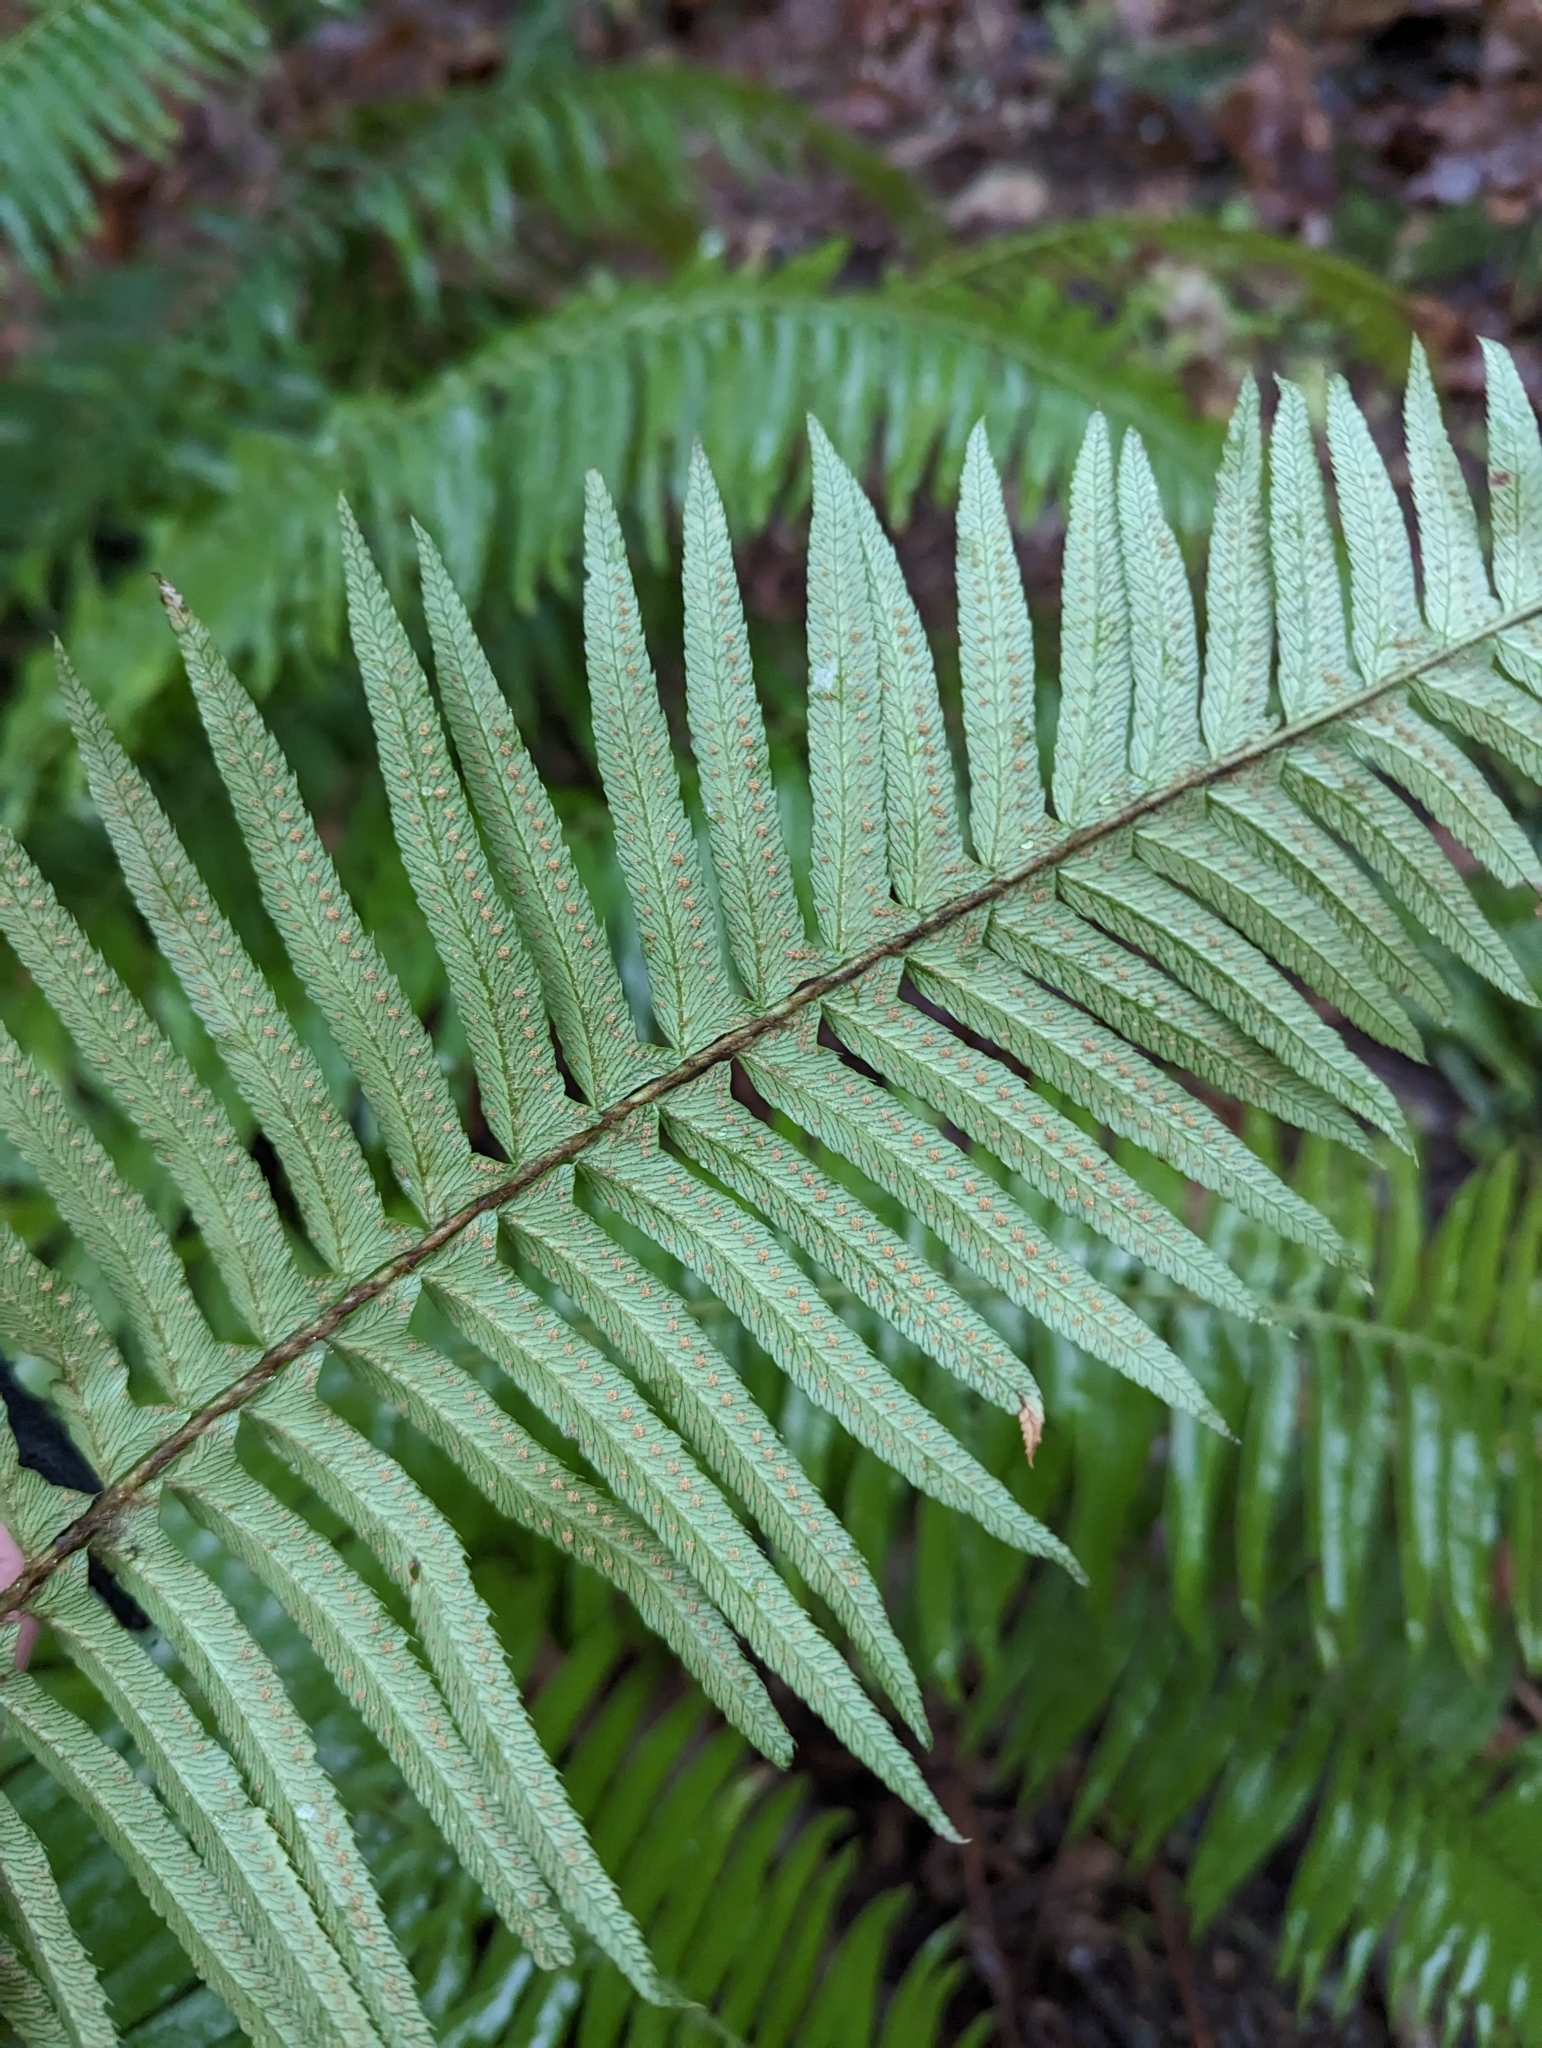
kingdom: Plantae
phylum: Tracheophyta
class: Polypodiopsida
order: Polypodiales
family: Dryopteridaceae
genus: Polystichum
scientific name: Polystichum munitum
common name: Western sword-fern
